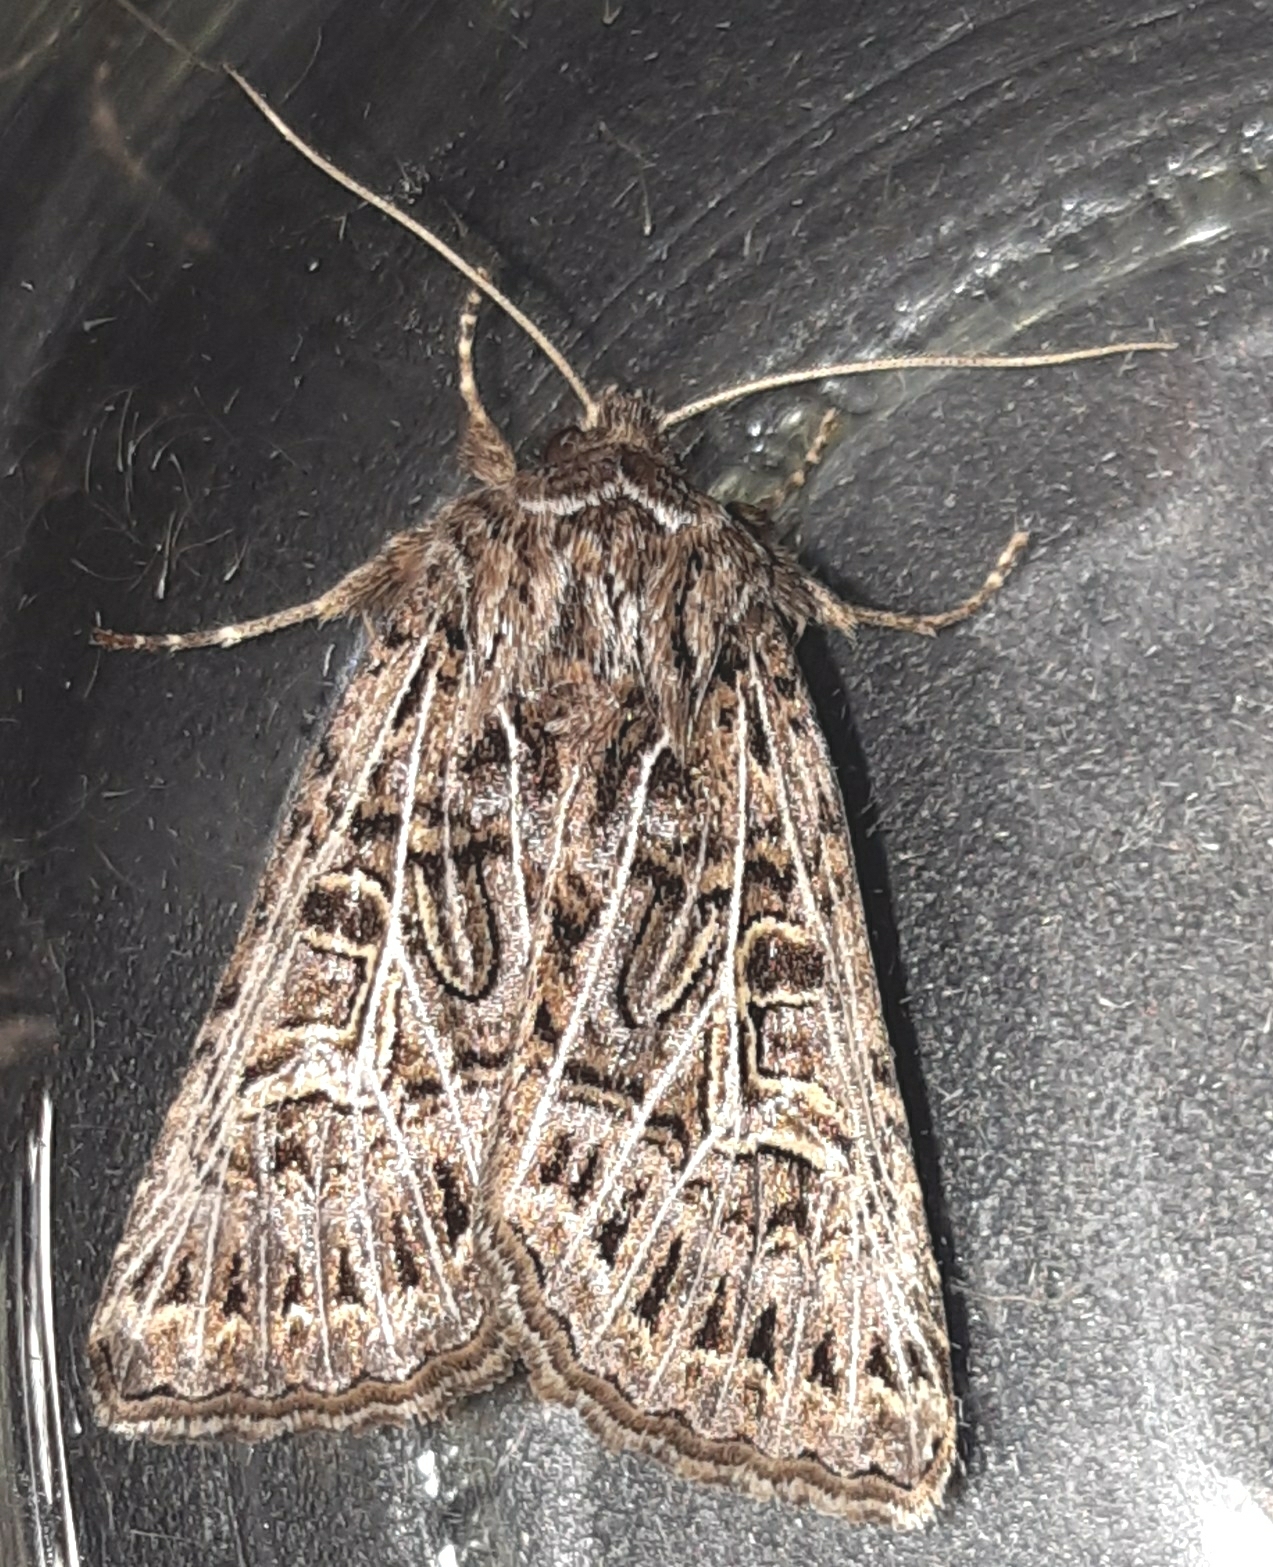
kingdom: Animalia
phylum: Arthropoda
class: Insecta
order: Lepidoptera
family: Noctuidae
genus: Tholera
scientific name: Tholera decimalis
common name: Feathered gothic
